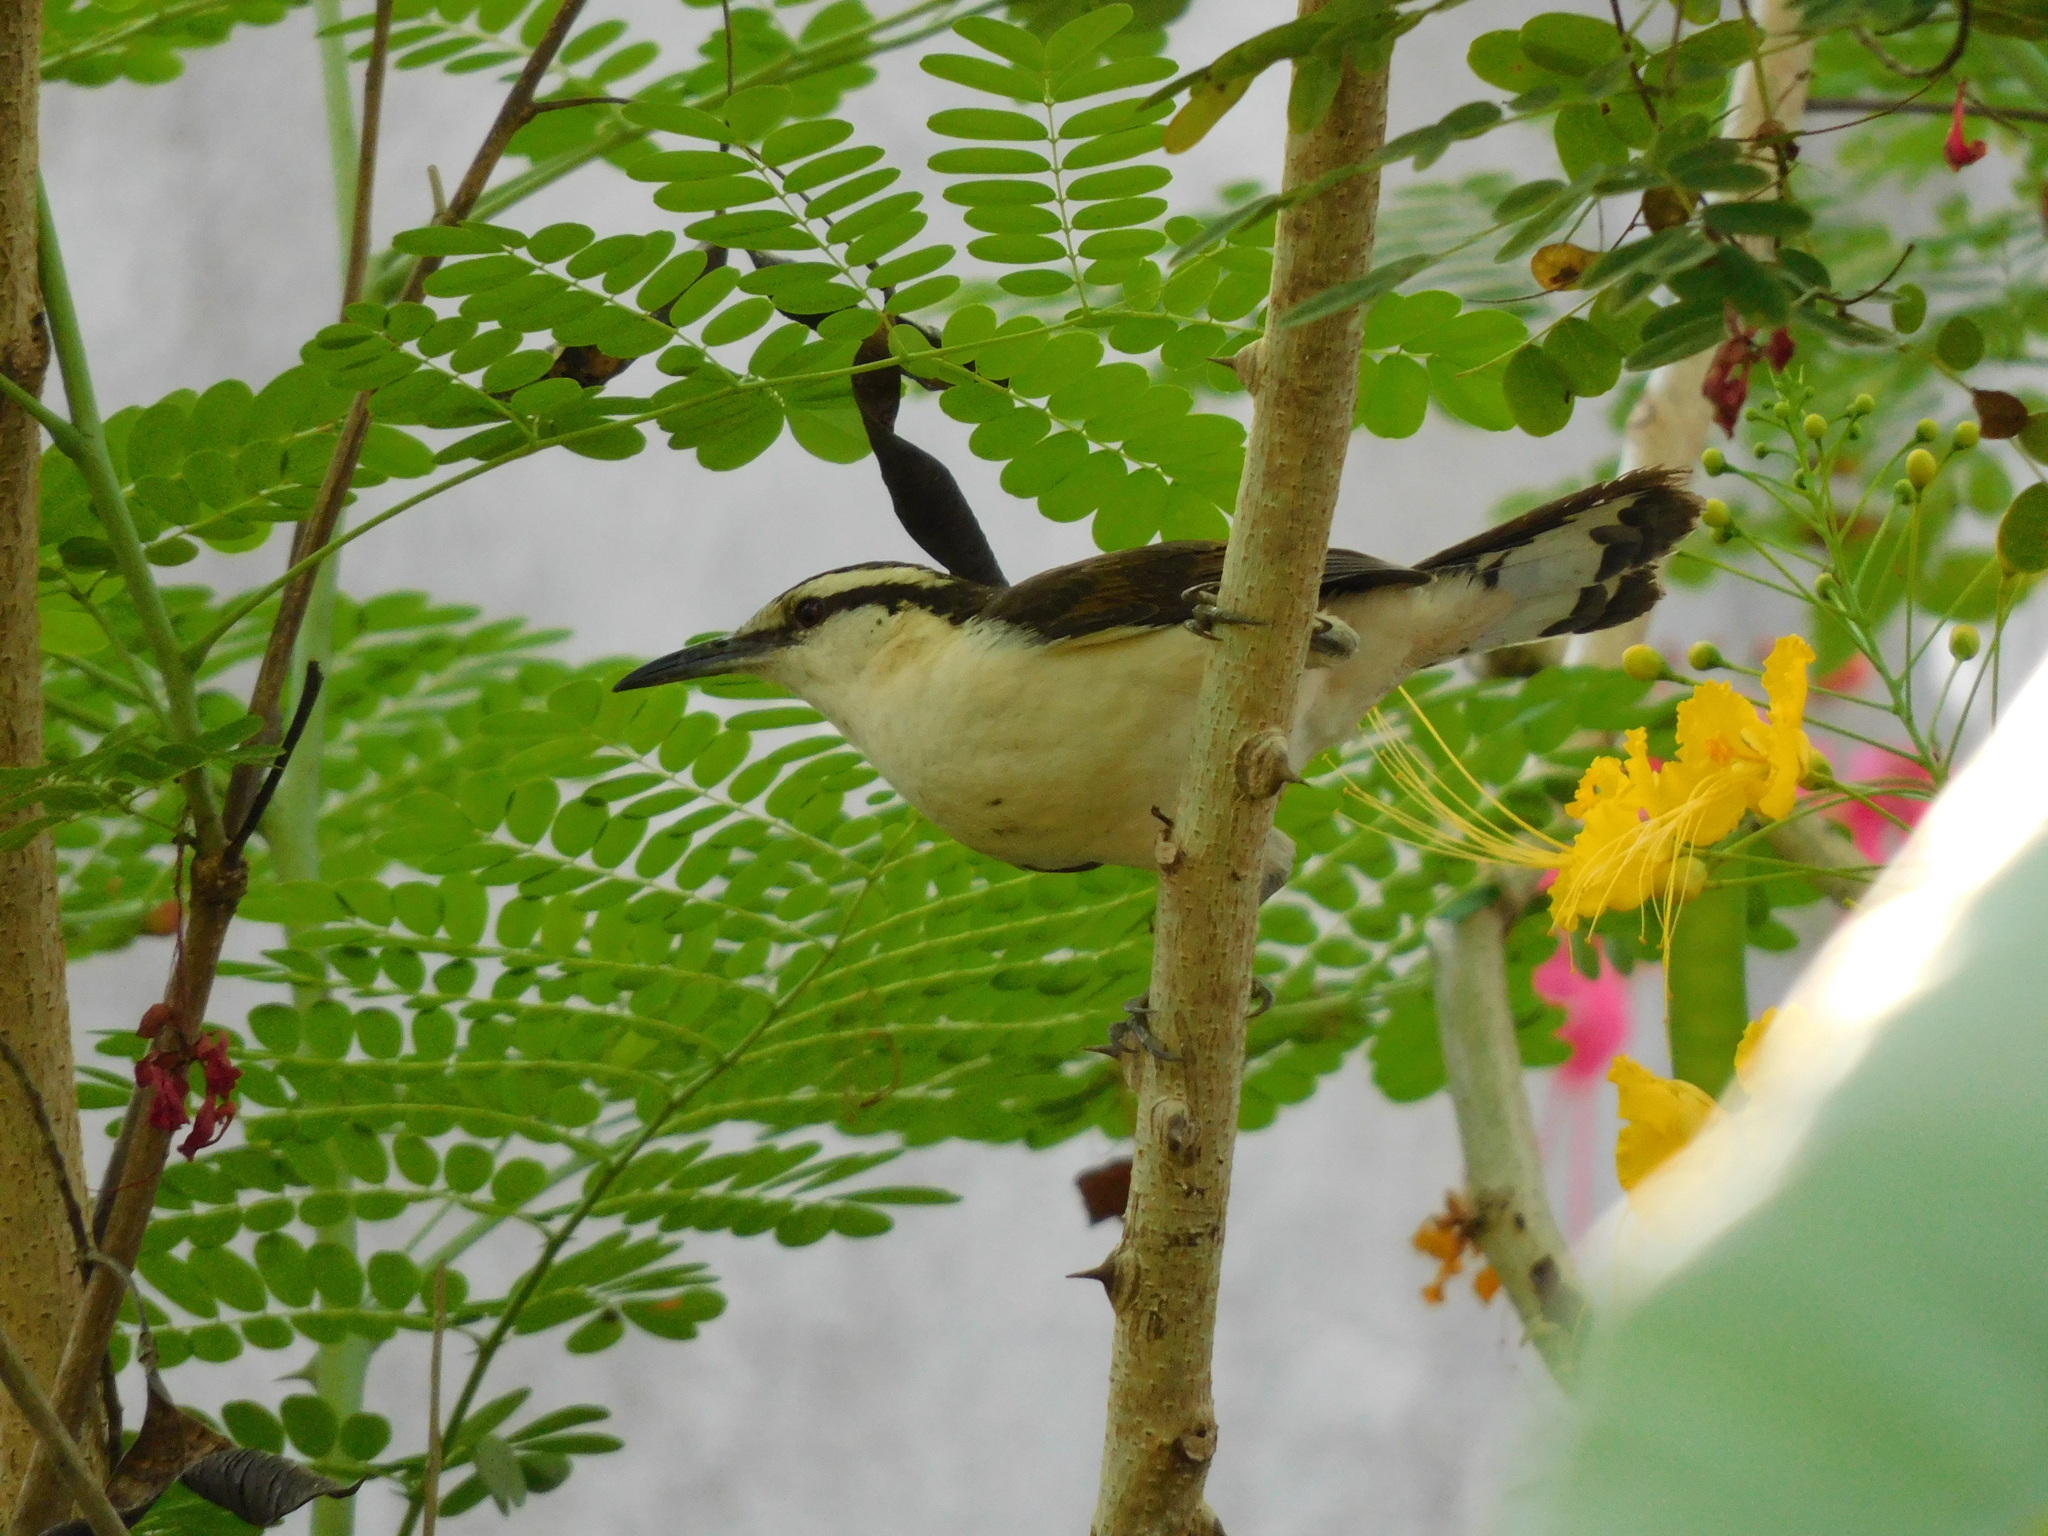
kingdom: Animalia
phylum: Chordata
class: Aves
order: Passeriformes
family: Troglodytidae
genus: Campylorhynchus
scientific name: Campylorhynchus griseus
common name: Bicolored wren
